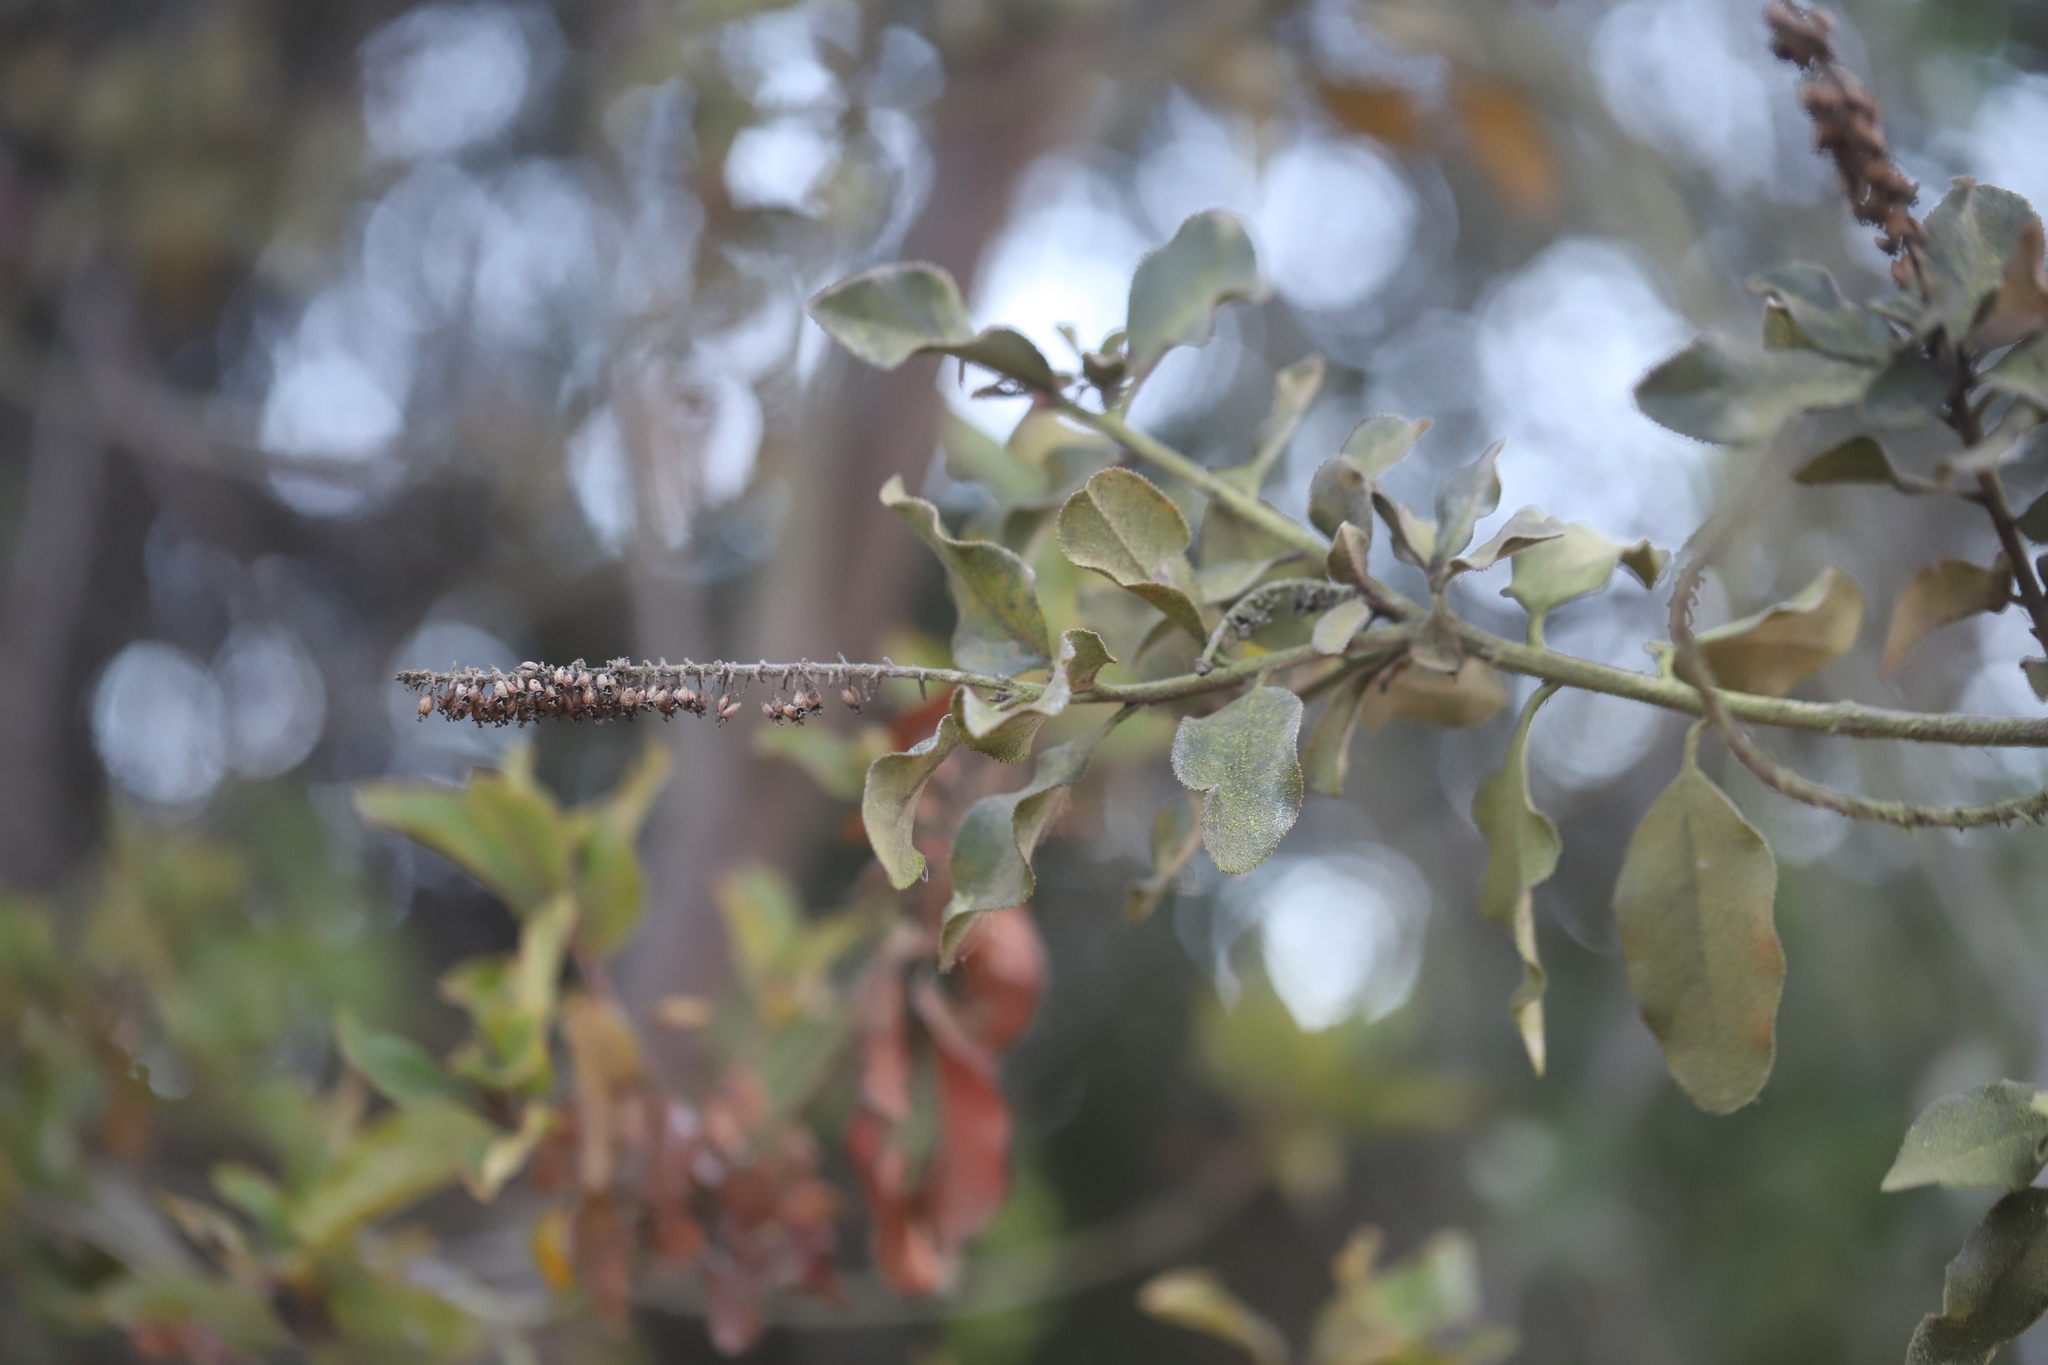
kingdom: Plantae
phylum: Tracheophyta
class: Magnoliopsida
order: Escalloniales
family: Escalloniaceae
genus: Escallonia
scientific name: Escallonia pulverulenta
